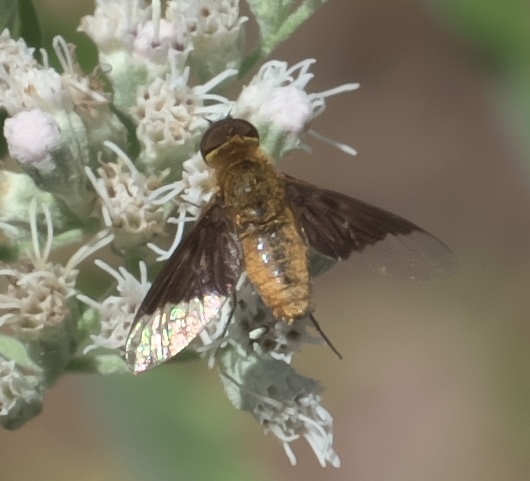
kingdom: Animalia
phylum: Arthropoda
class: Insecta
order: Diptera
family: Bombyliidae
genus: Chrysanthrax
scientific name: Chrysanthrax cypris
